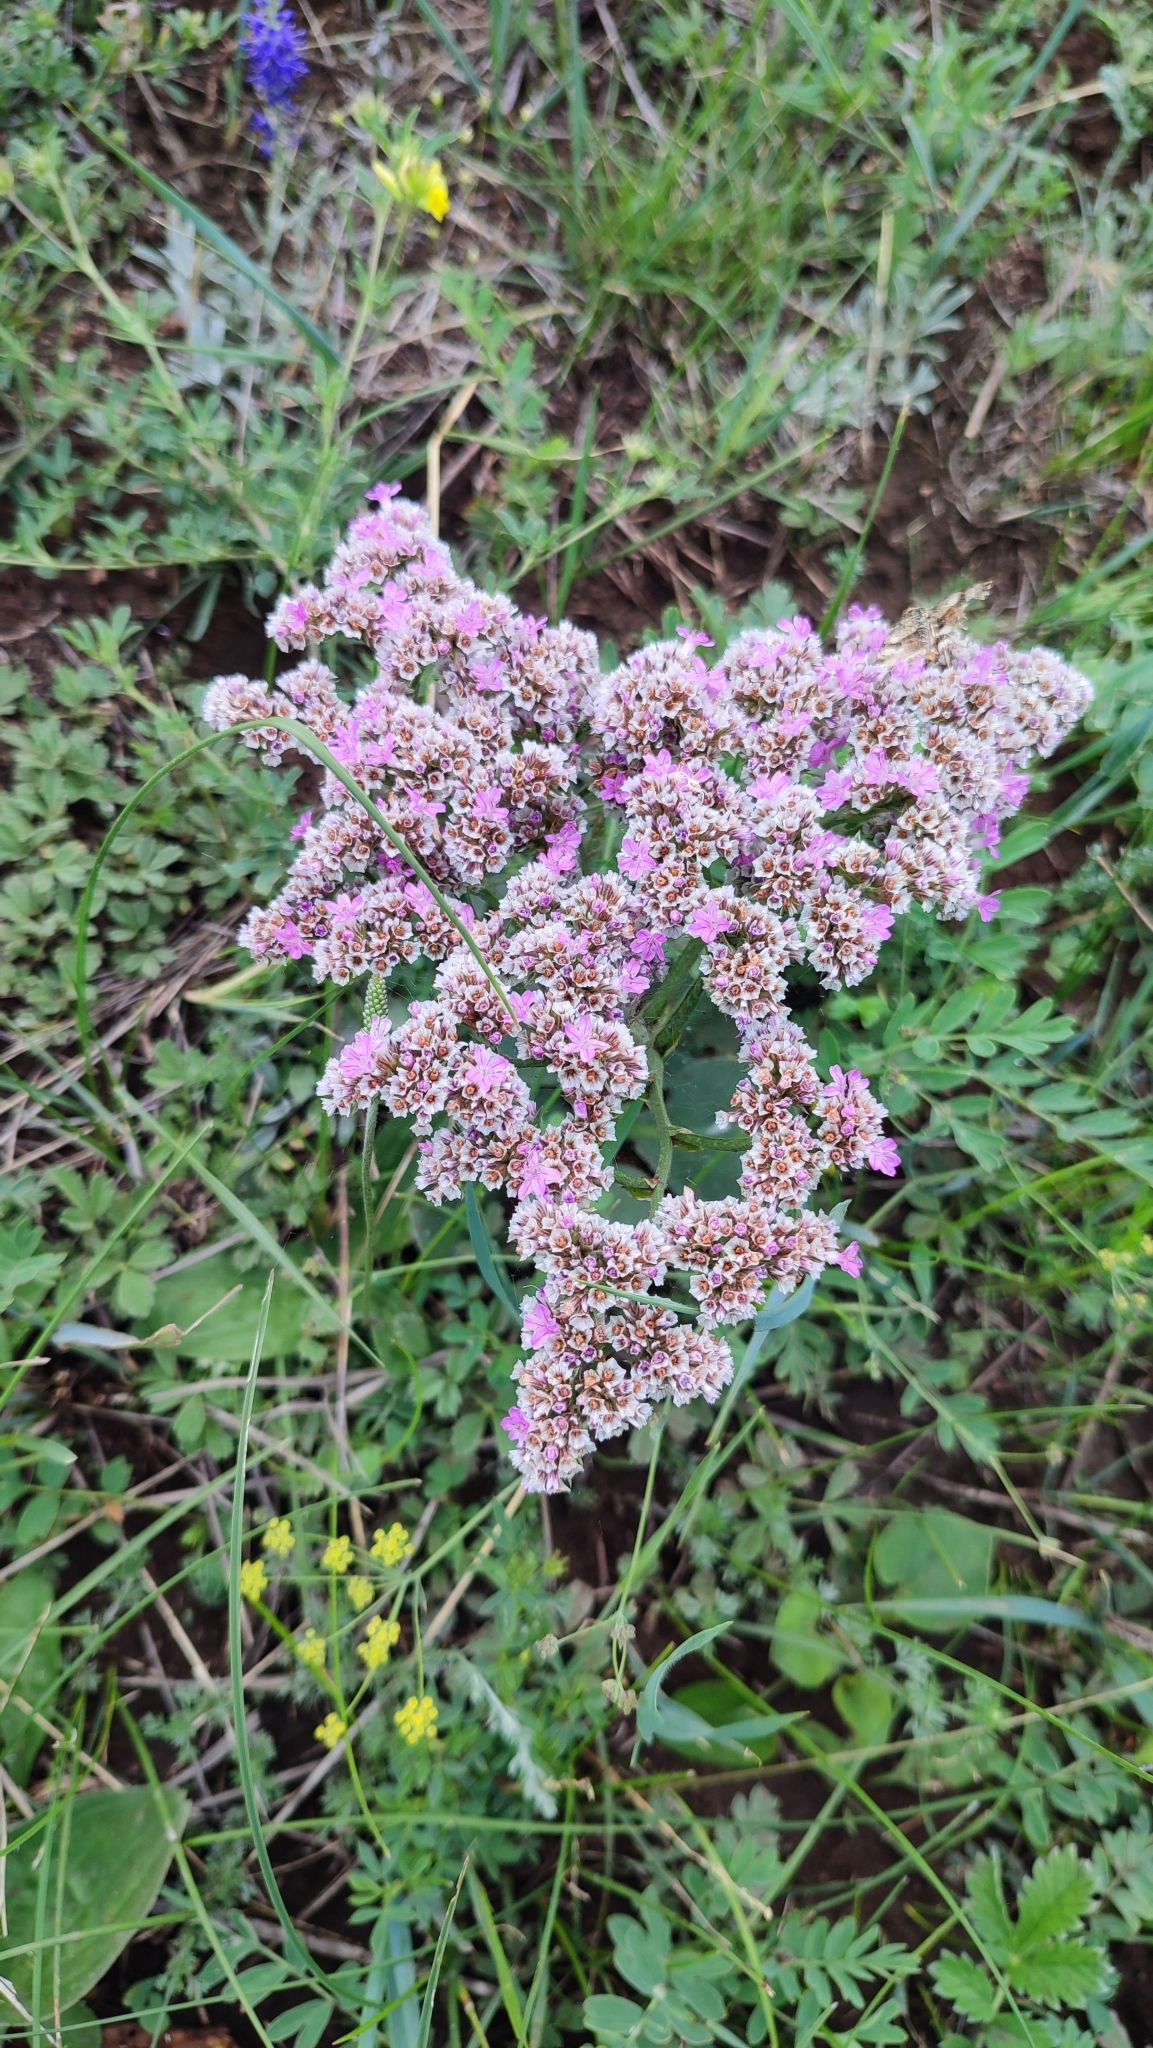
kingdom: Plantae
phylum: Tracheophyta
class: Magnoliopsida
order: Caryophyllales
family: Plumbaginaceae
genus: Goniolimon
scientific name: Goniolimon speciosum
